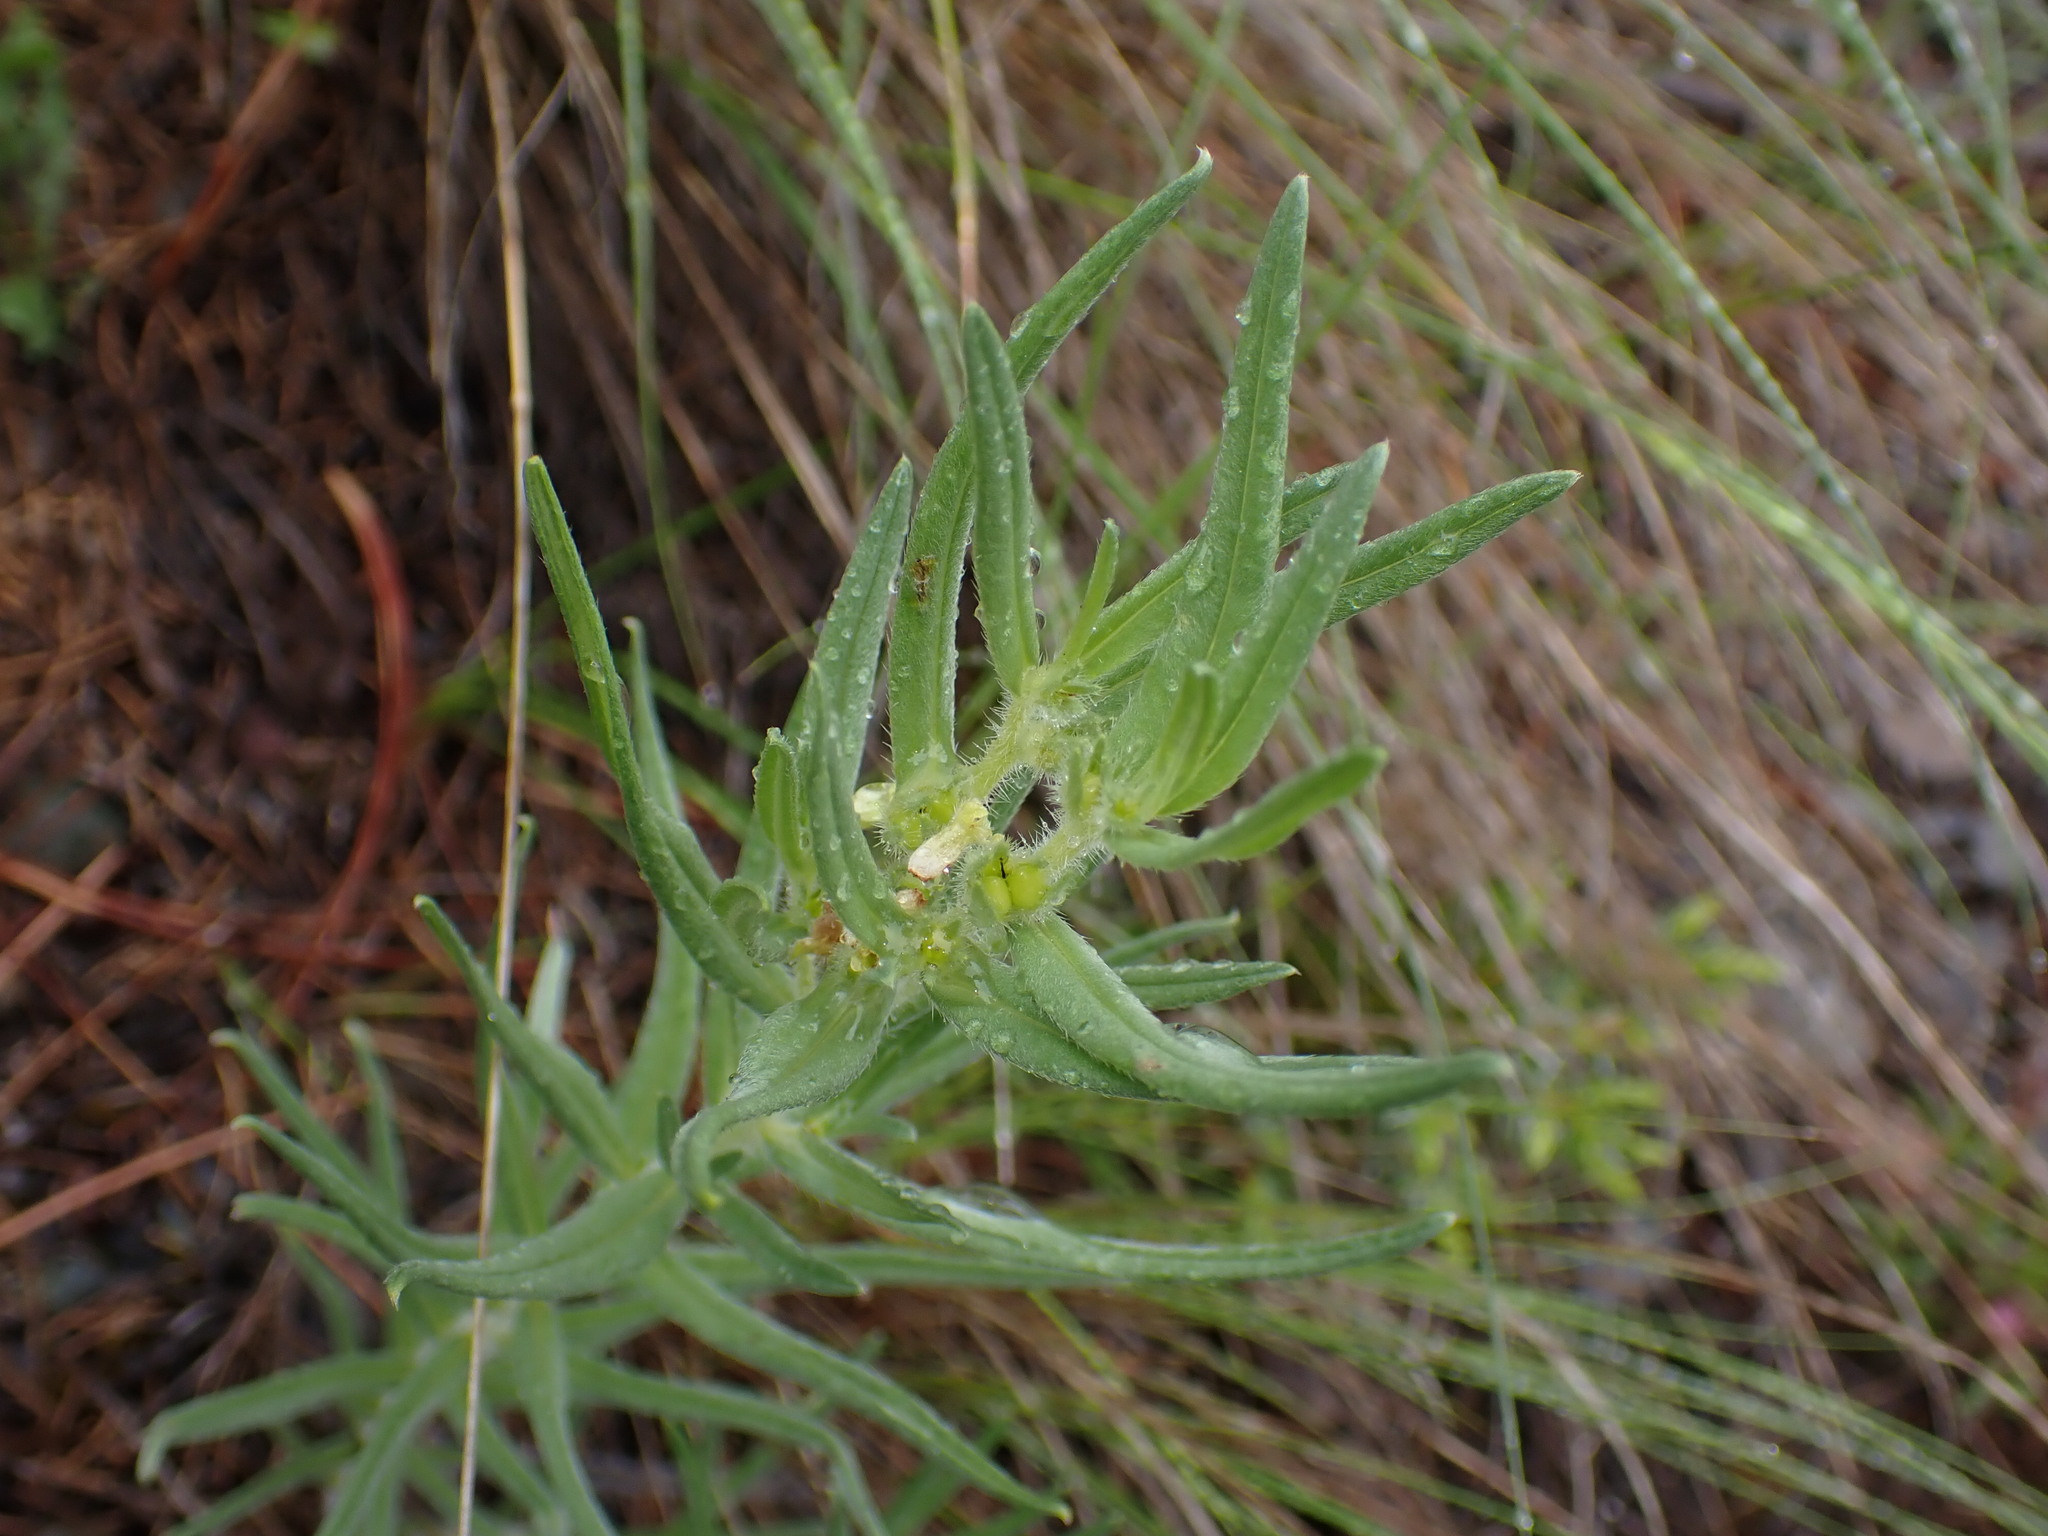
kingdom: Plantae
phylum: Tracheophyta
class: Magnoliopsida
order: Boraginales
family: Boraginaceae
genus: Lithospermum
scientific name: Lithospermum ruderale
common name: Western gromwell
